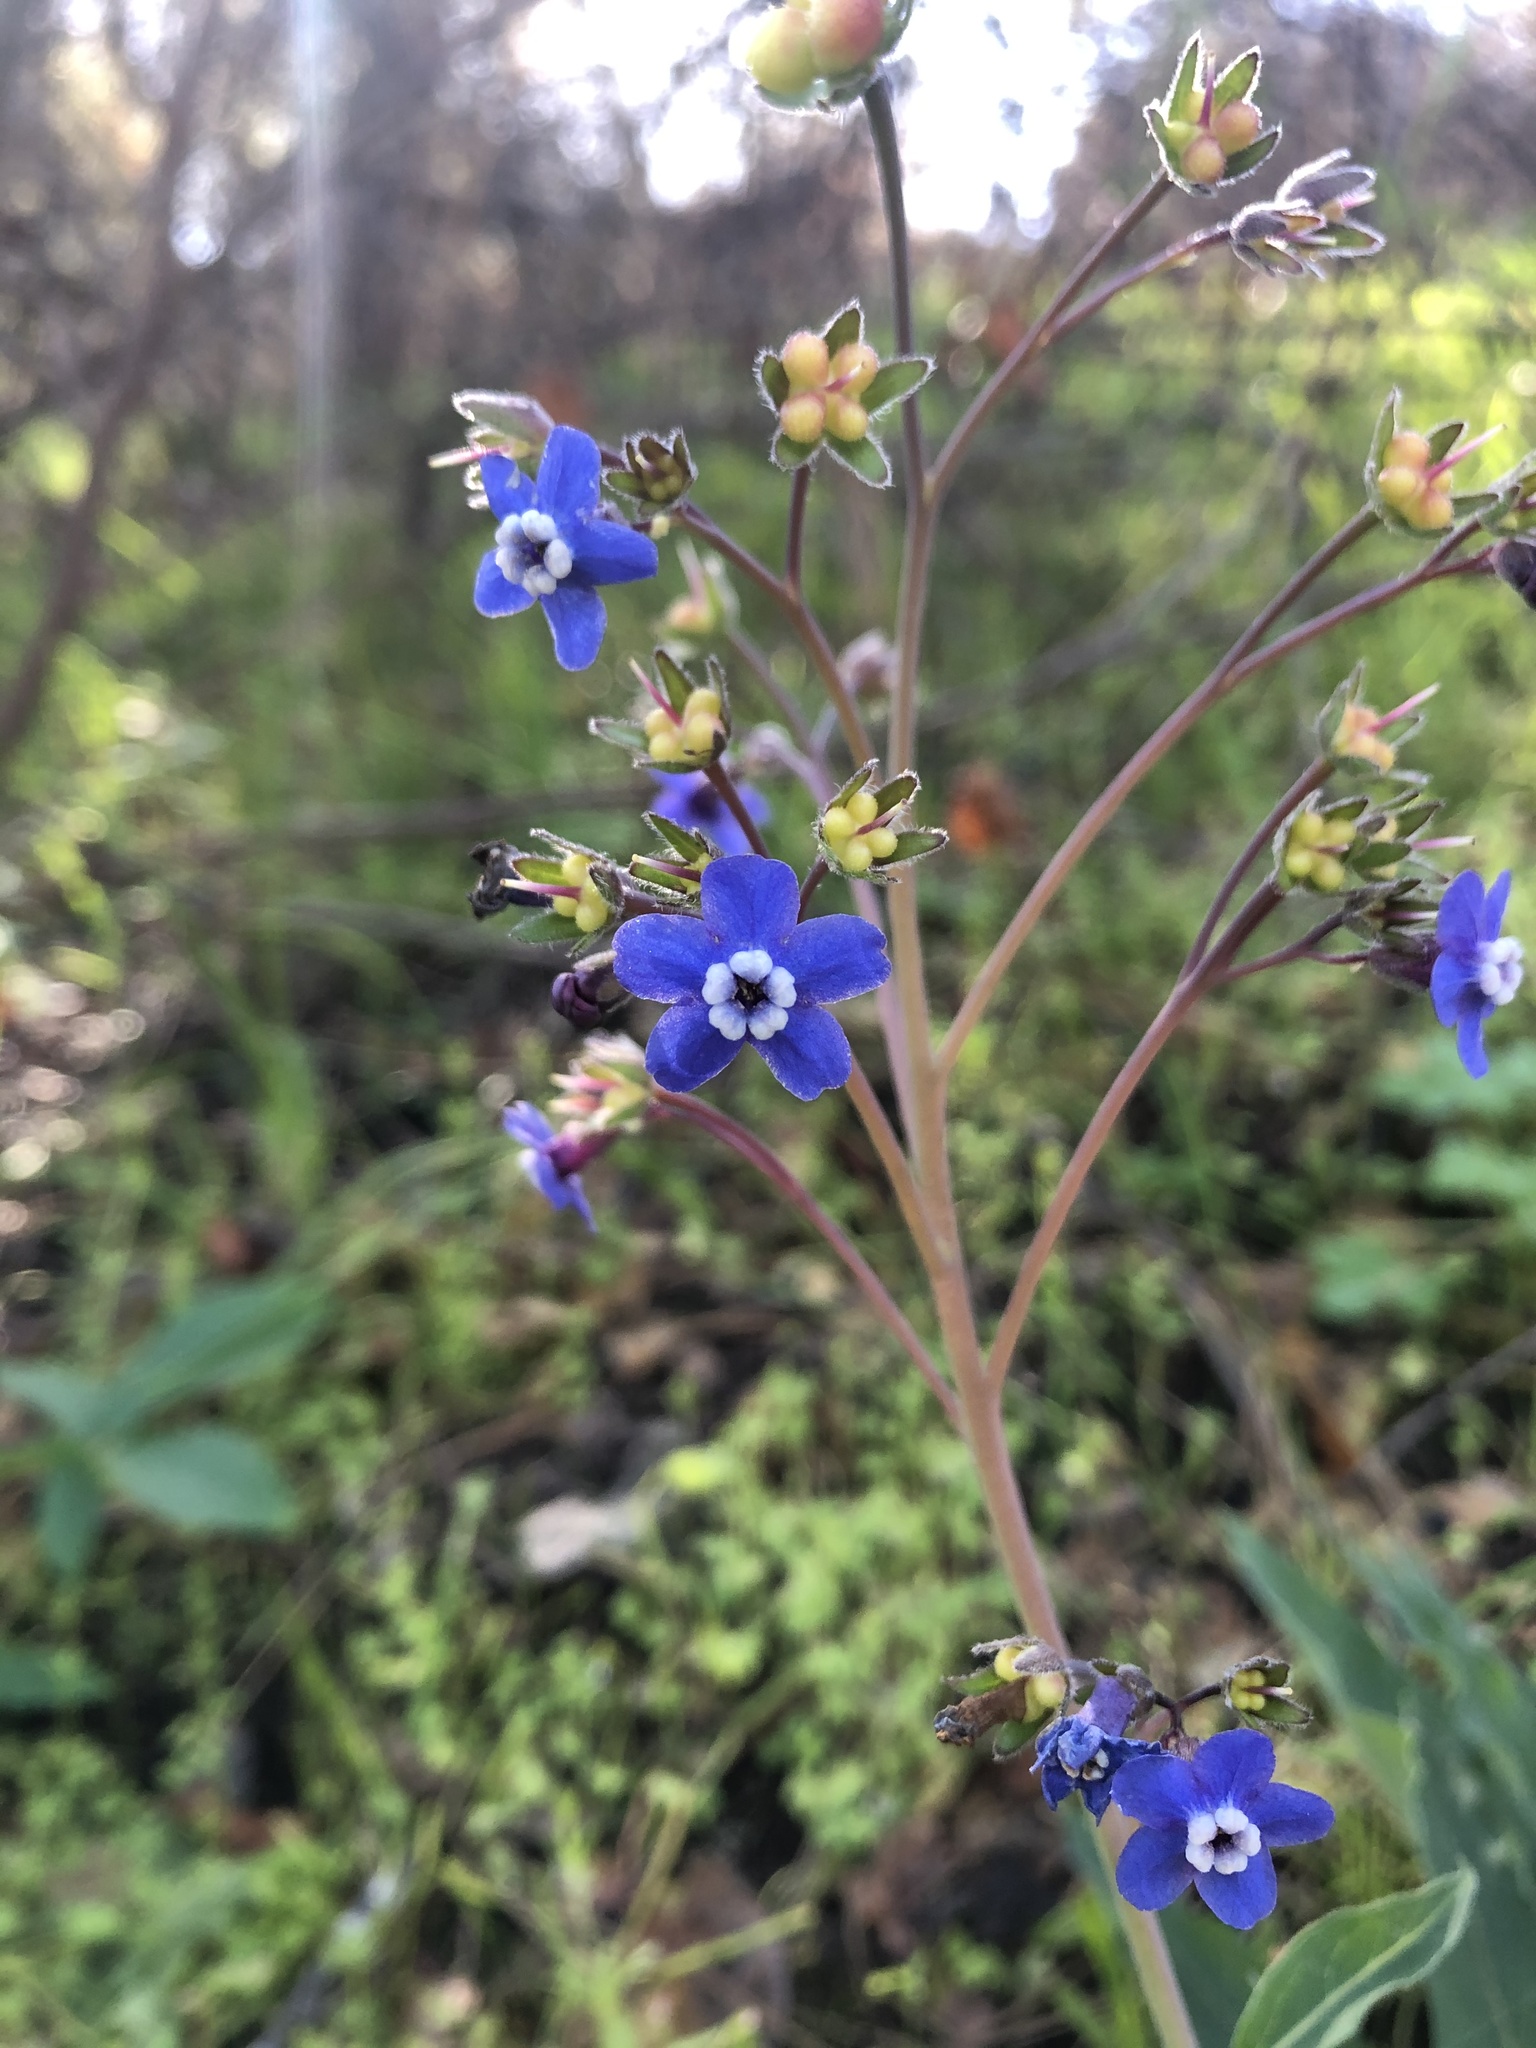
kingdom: Plantae
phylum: Tracheophyta
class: Magnoliopsida
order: Boraginales
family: Boraginaceae
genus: Adelinia
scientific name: Adelinia grande
